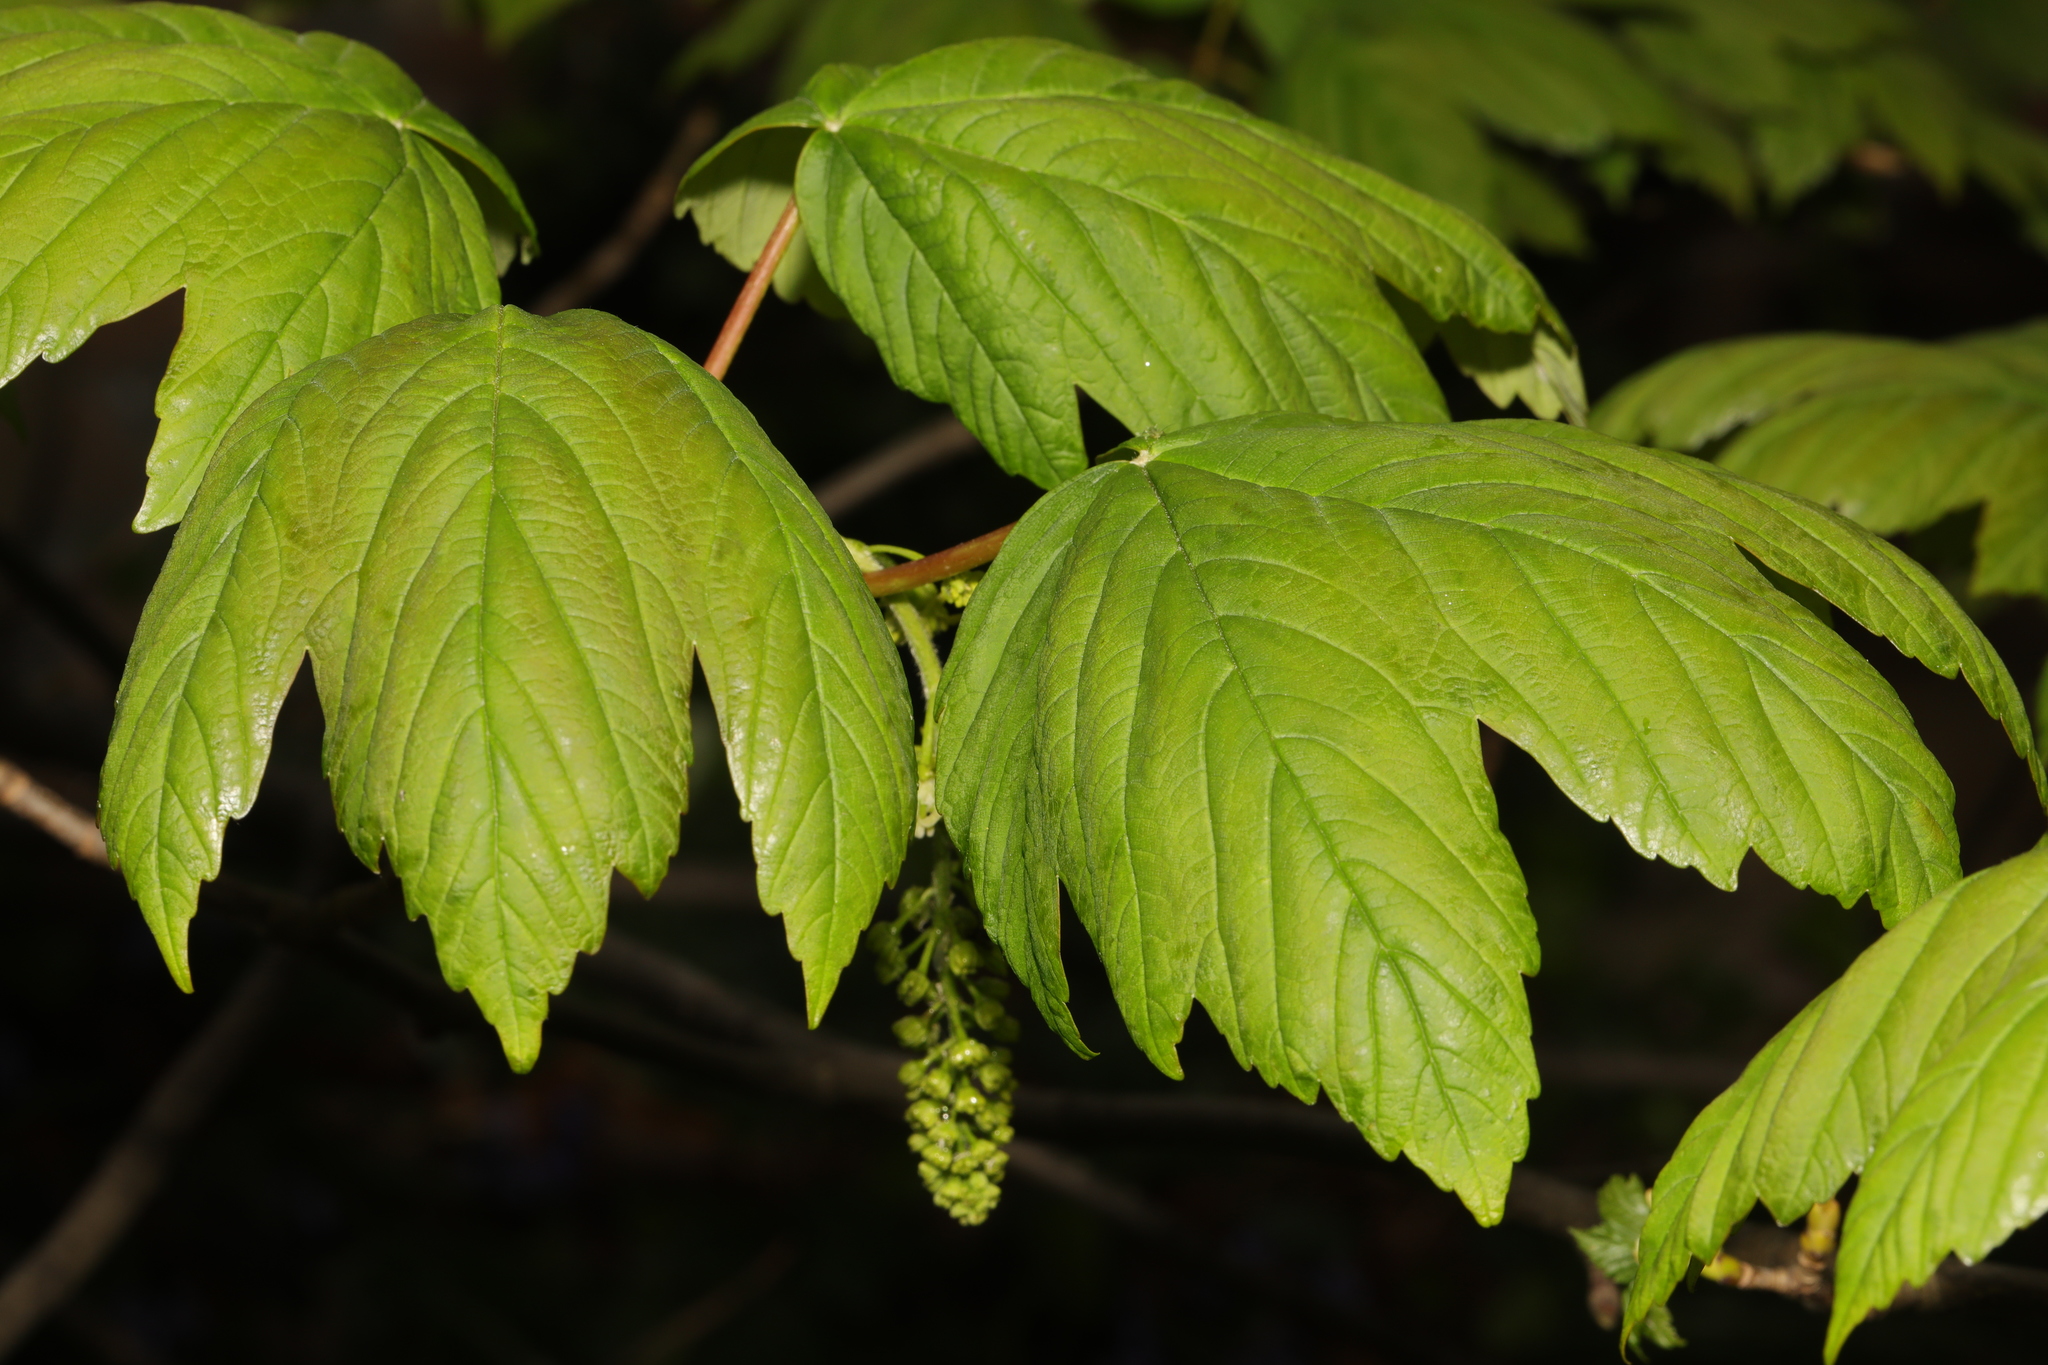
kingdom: Plantae
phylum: Tracheophyta
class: Magnoliopsida
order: Sapindales
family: Sapindaceae
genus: Acer
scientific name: Acer pseudoplatanus
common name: Sycamore
